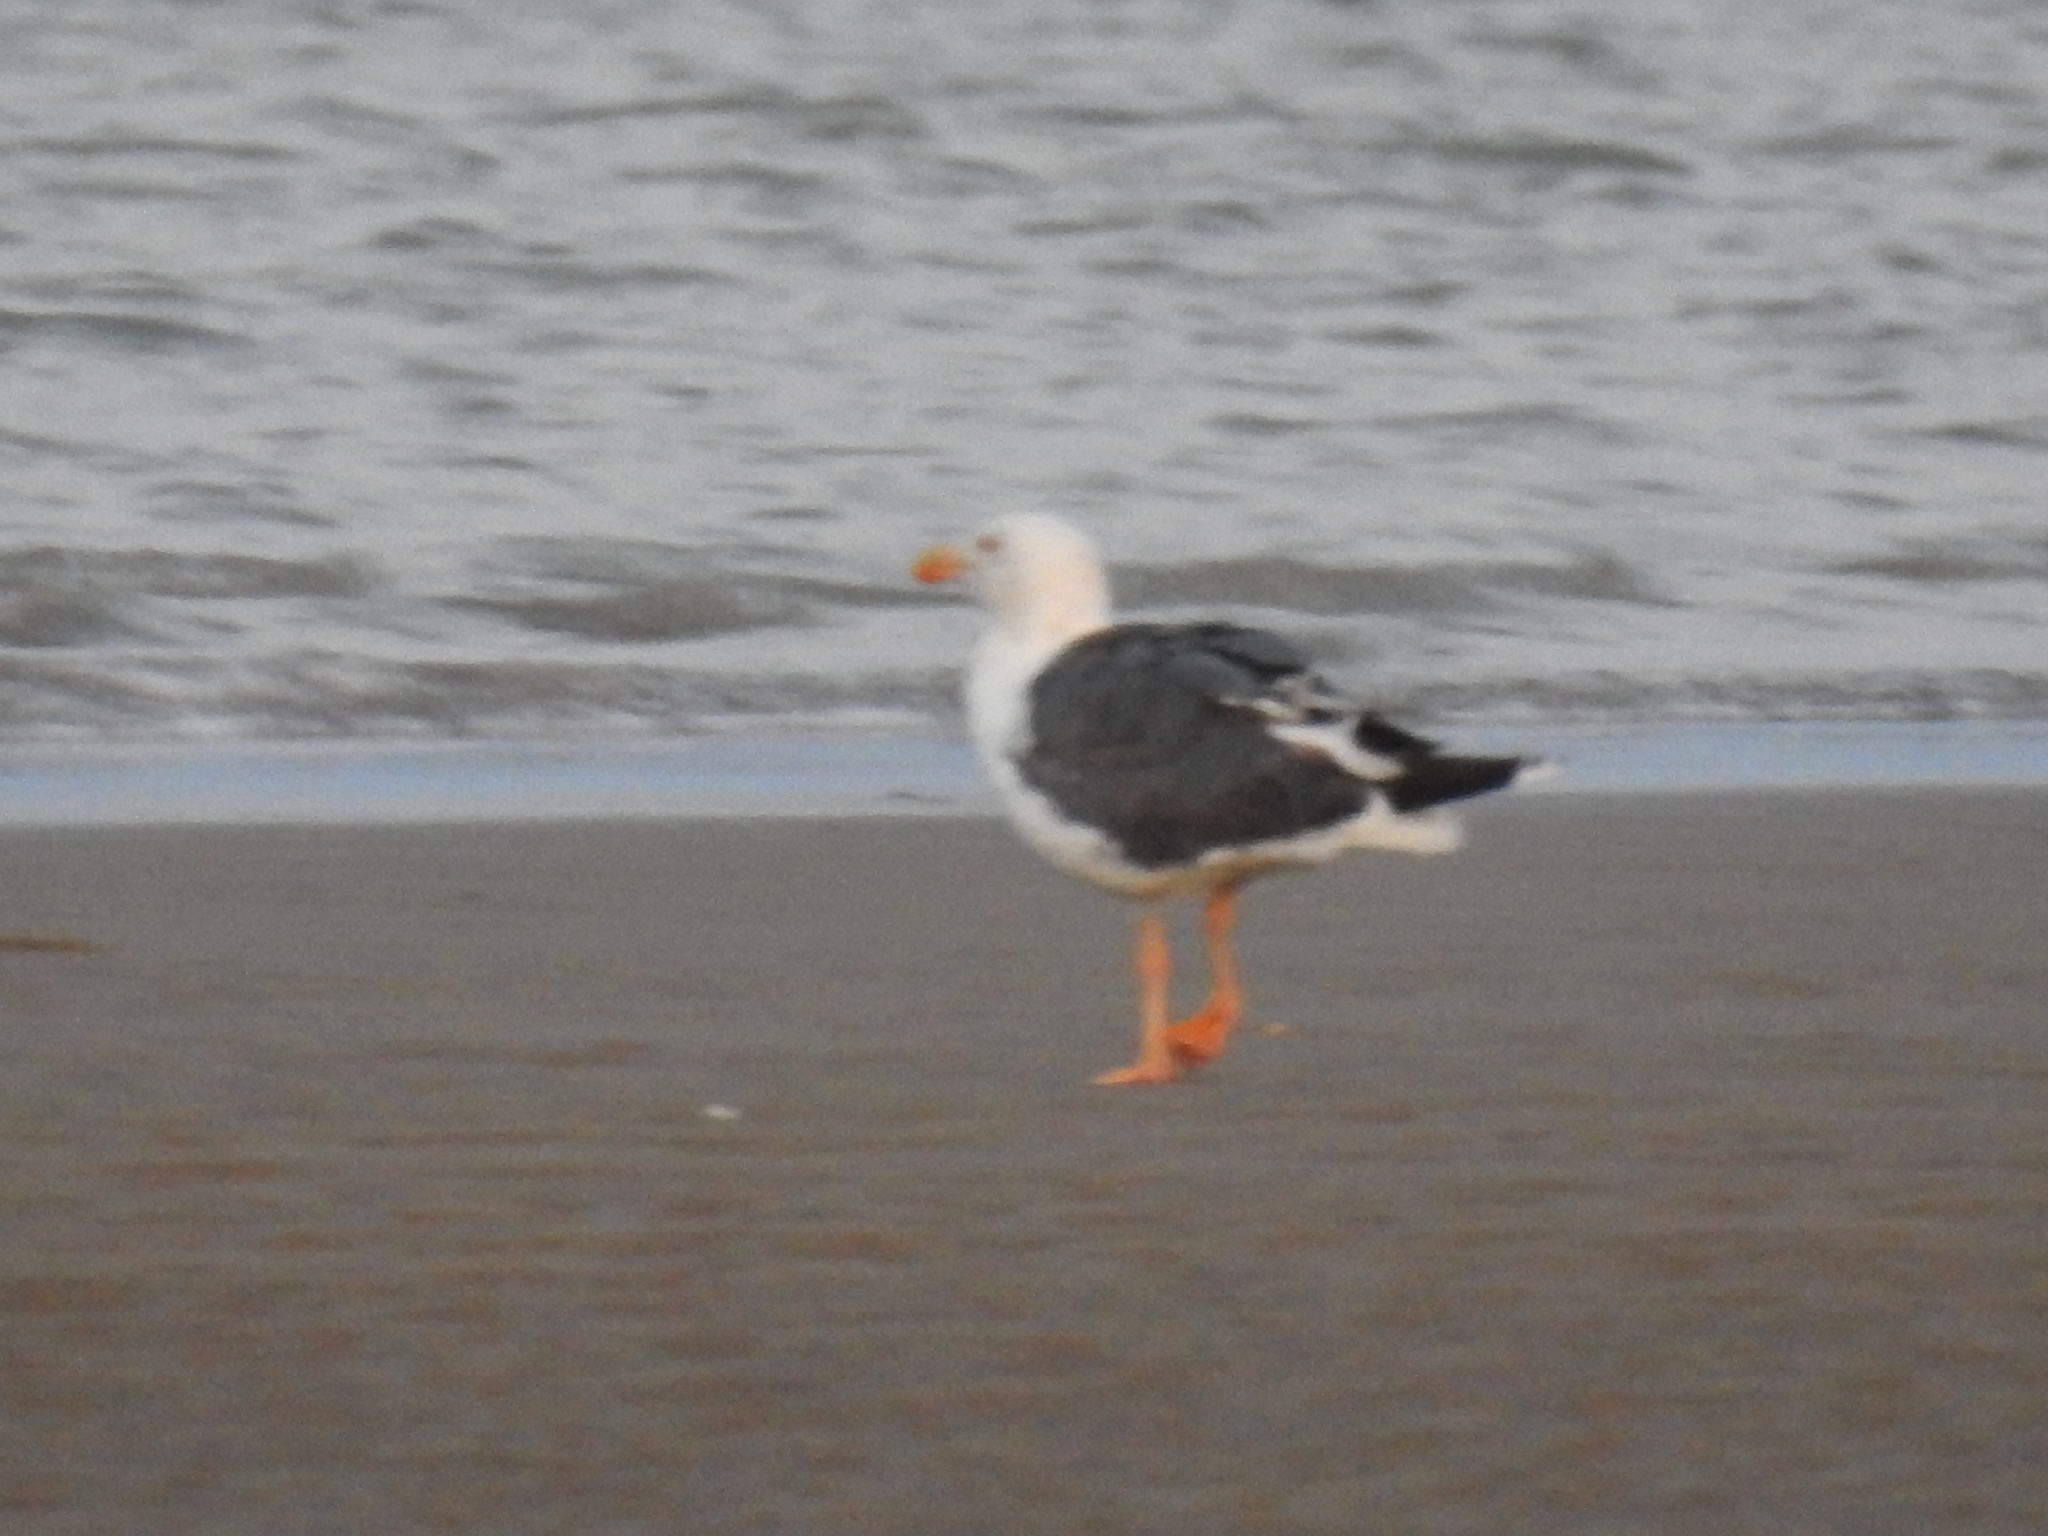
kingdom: Animalia
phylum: Chordata
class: Aves
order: Charadriiformes
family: Laridae
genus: Larus
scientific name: Larus livens
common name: Yellow-footed gull
